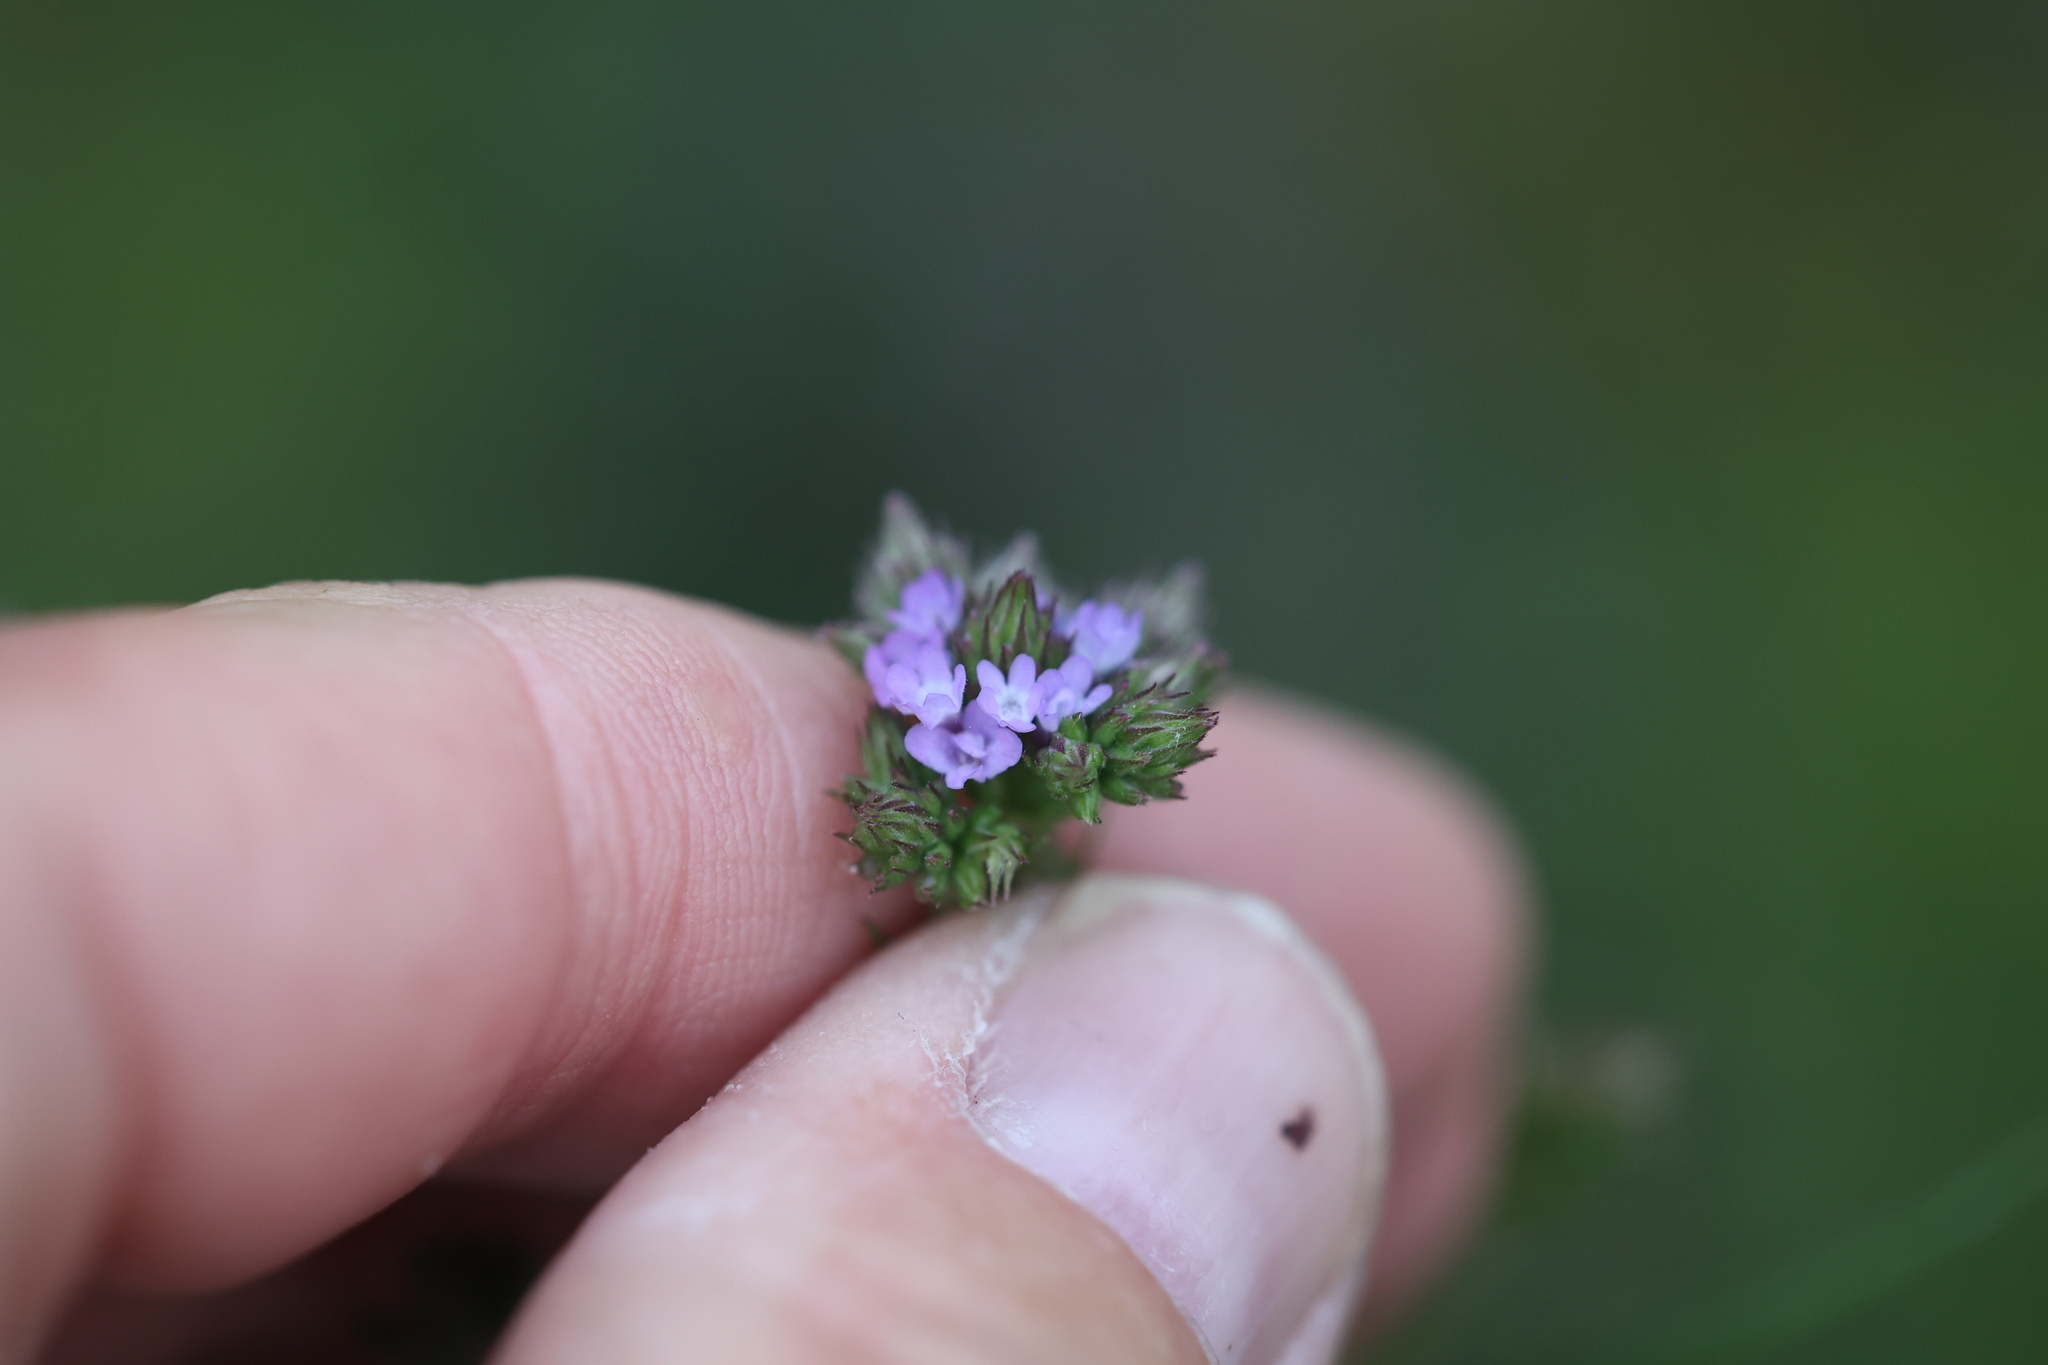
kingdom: Plantae
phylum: Tracheophyta
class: Magnoliopsida
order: Lamiales
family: Verbenaceae
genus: Verbena
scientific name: Verbena brasiliensis
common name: Brazilian vervain
